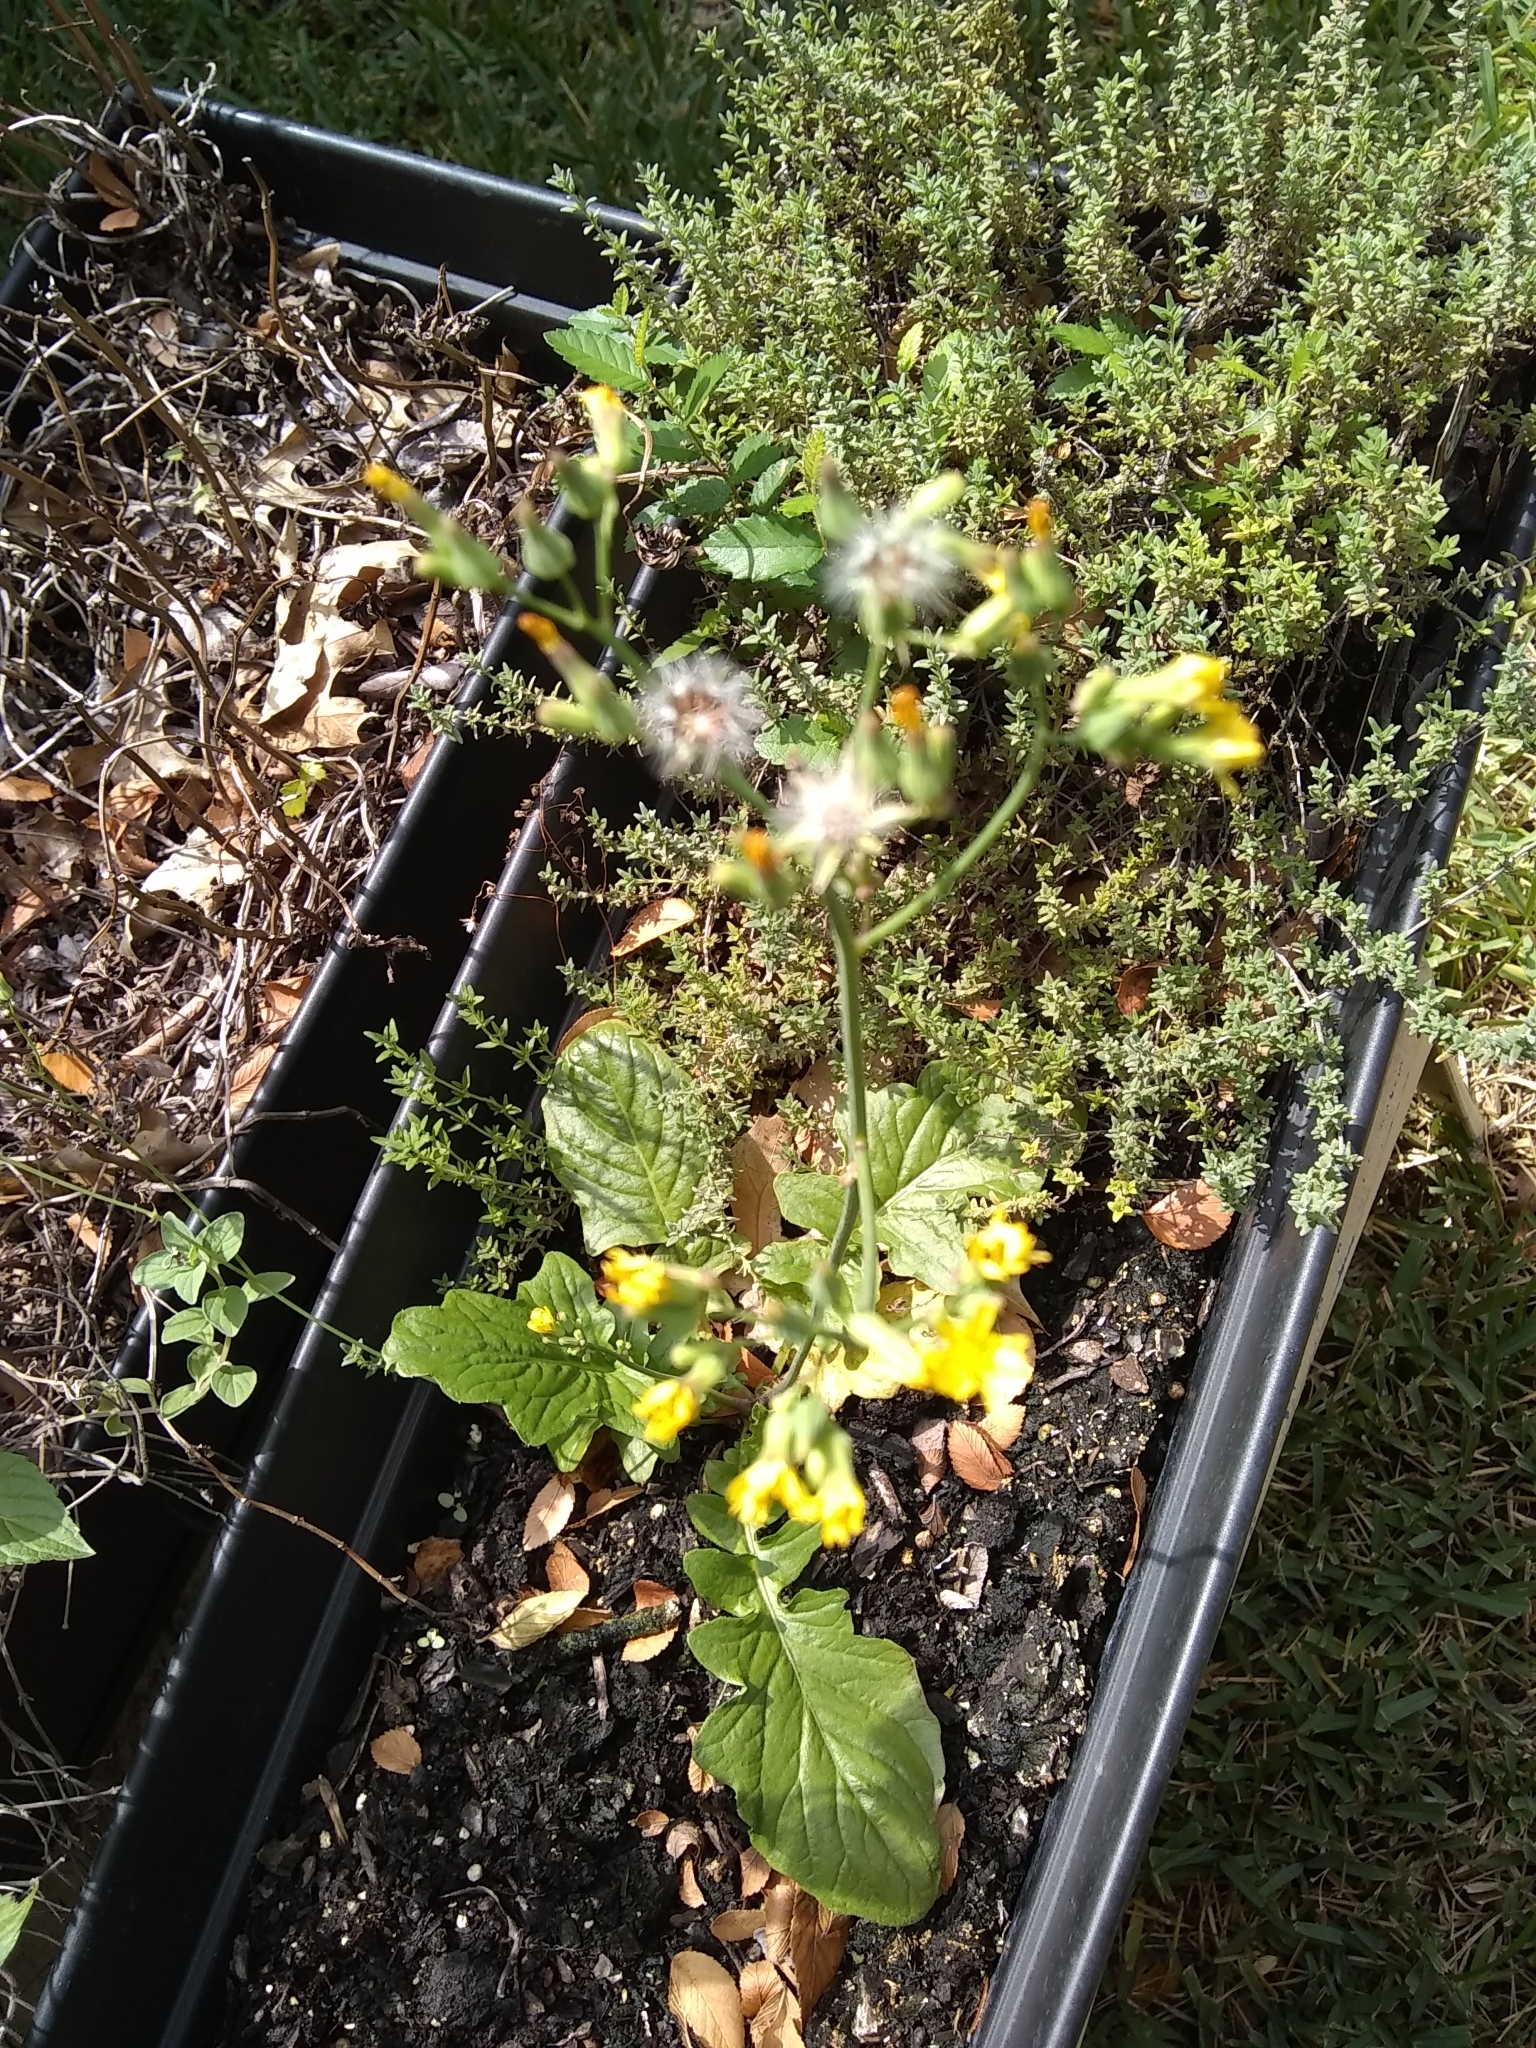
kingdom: Plantae
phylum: Tracheophyta
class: Magnoliopsida
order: Asterales
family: Asteraceae
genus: Youngia
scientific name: Youngia japonica
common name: Oriental false hawksbeard
